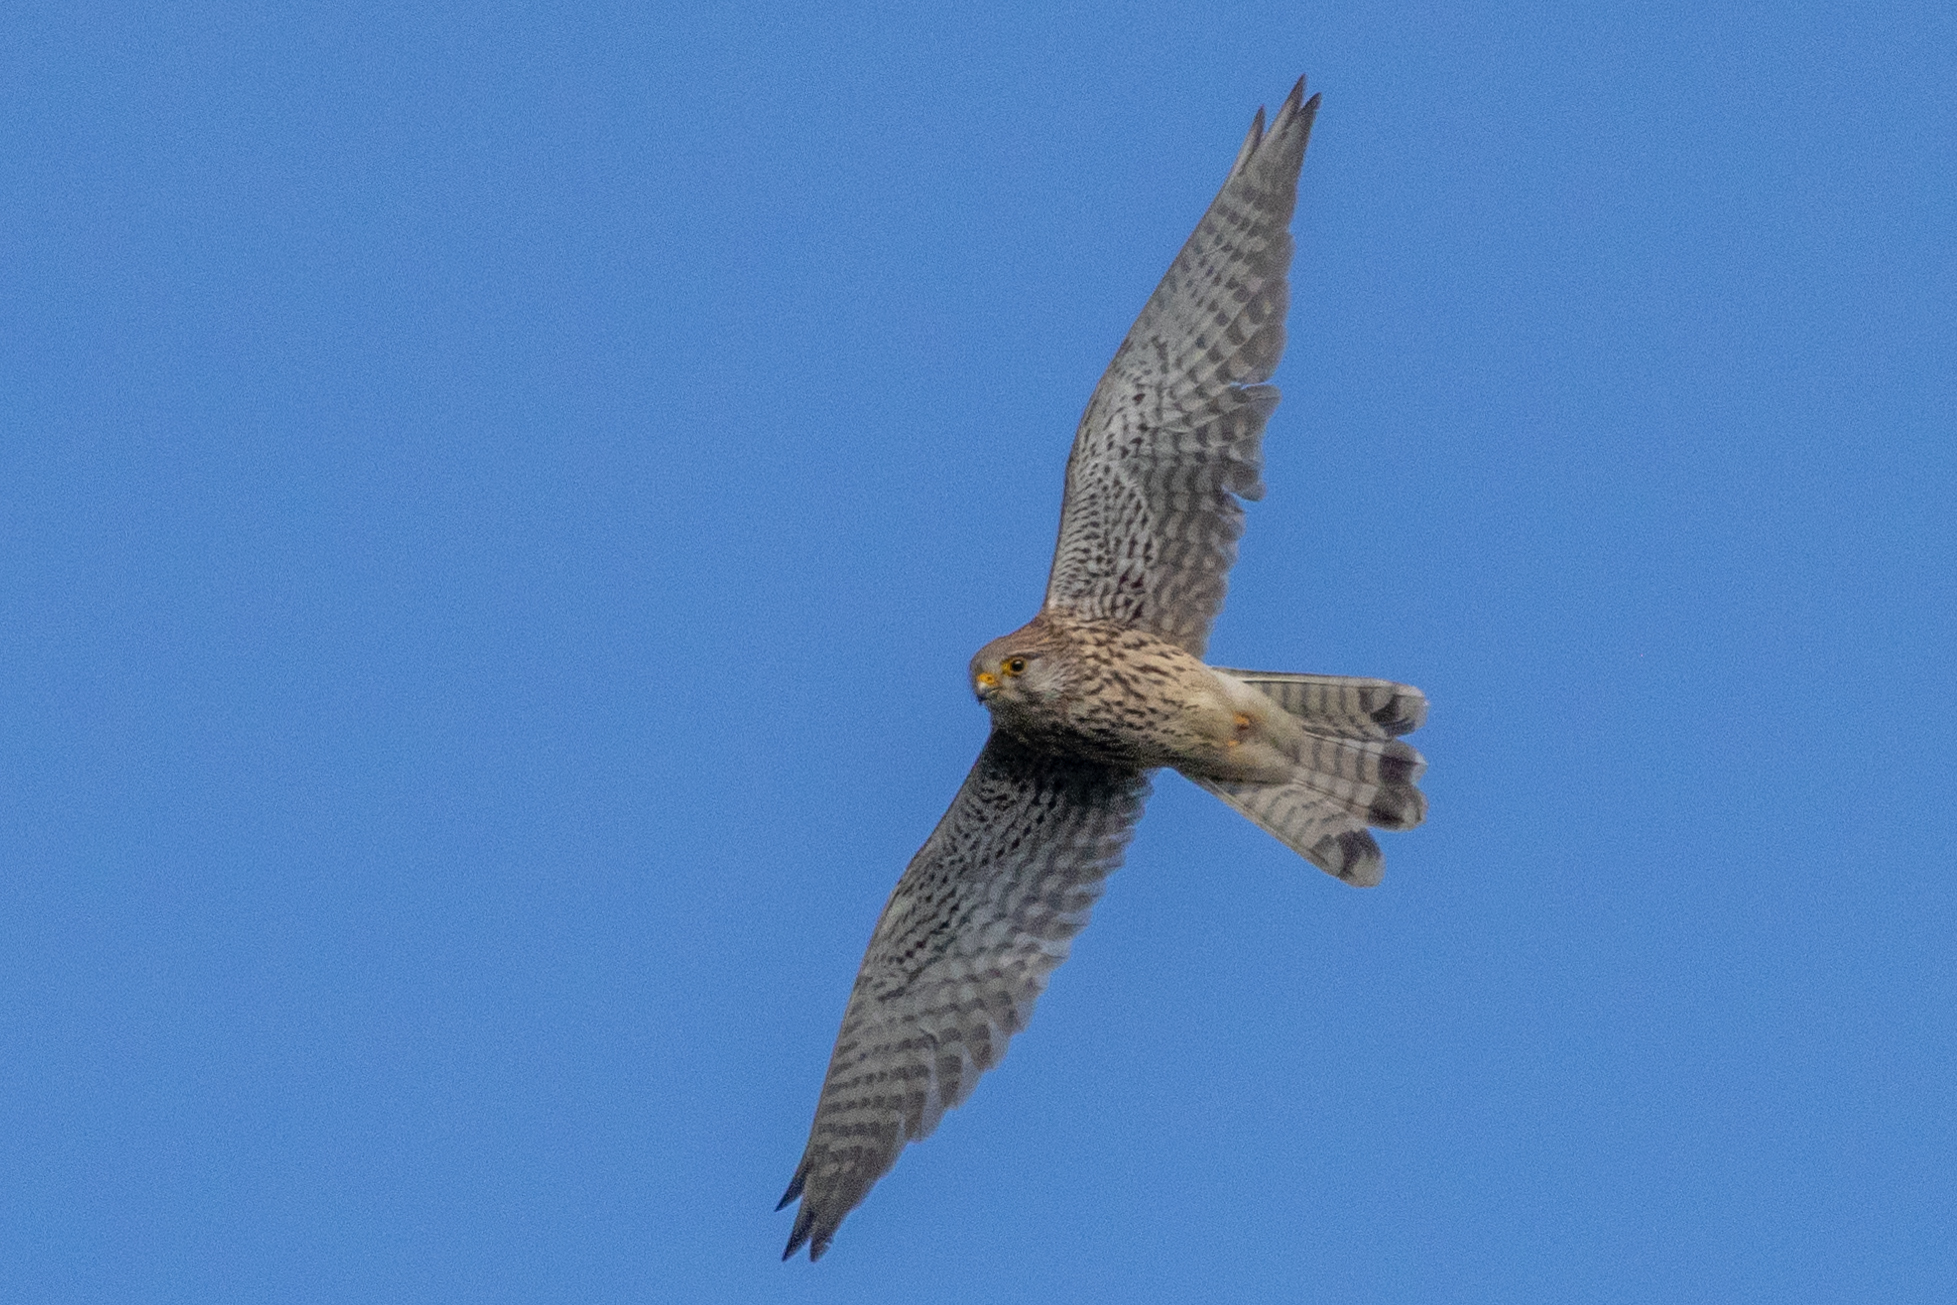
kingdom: Animalia
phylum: Chordata
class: Aves
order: Falconiformes
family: Falconidae
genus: Falco
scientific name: Falco tinnunculus
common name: Common kestrel
